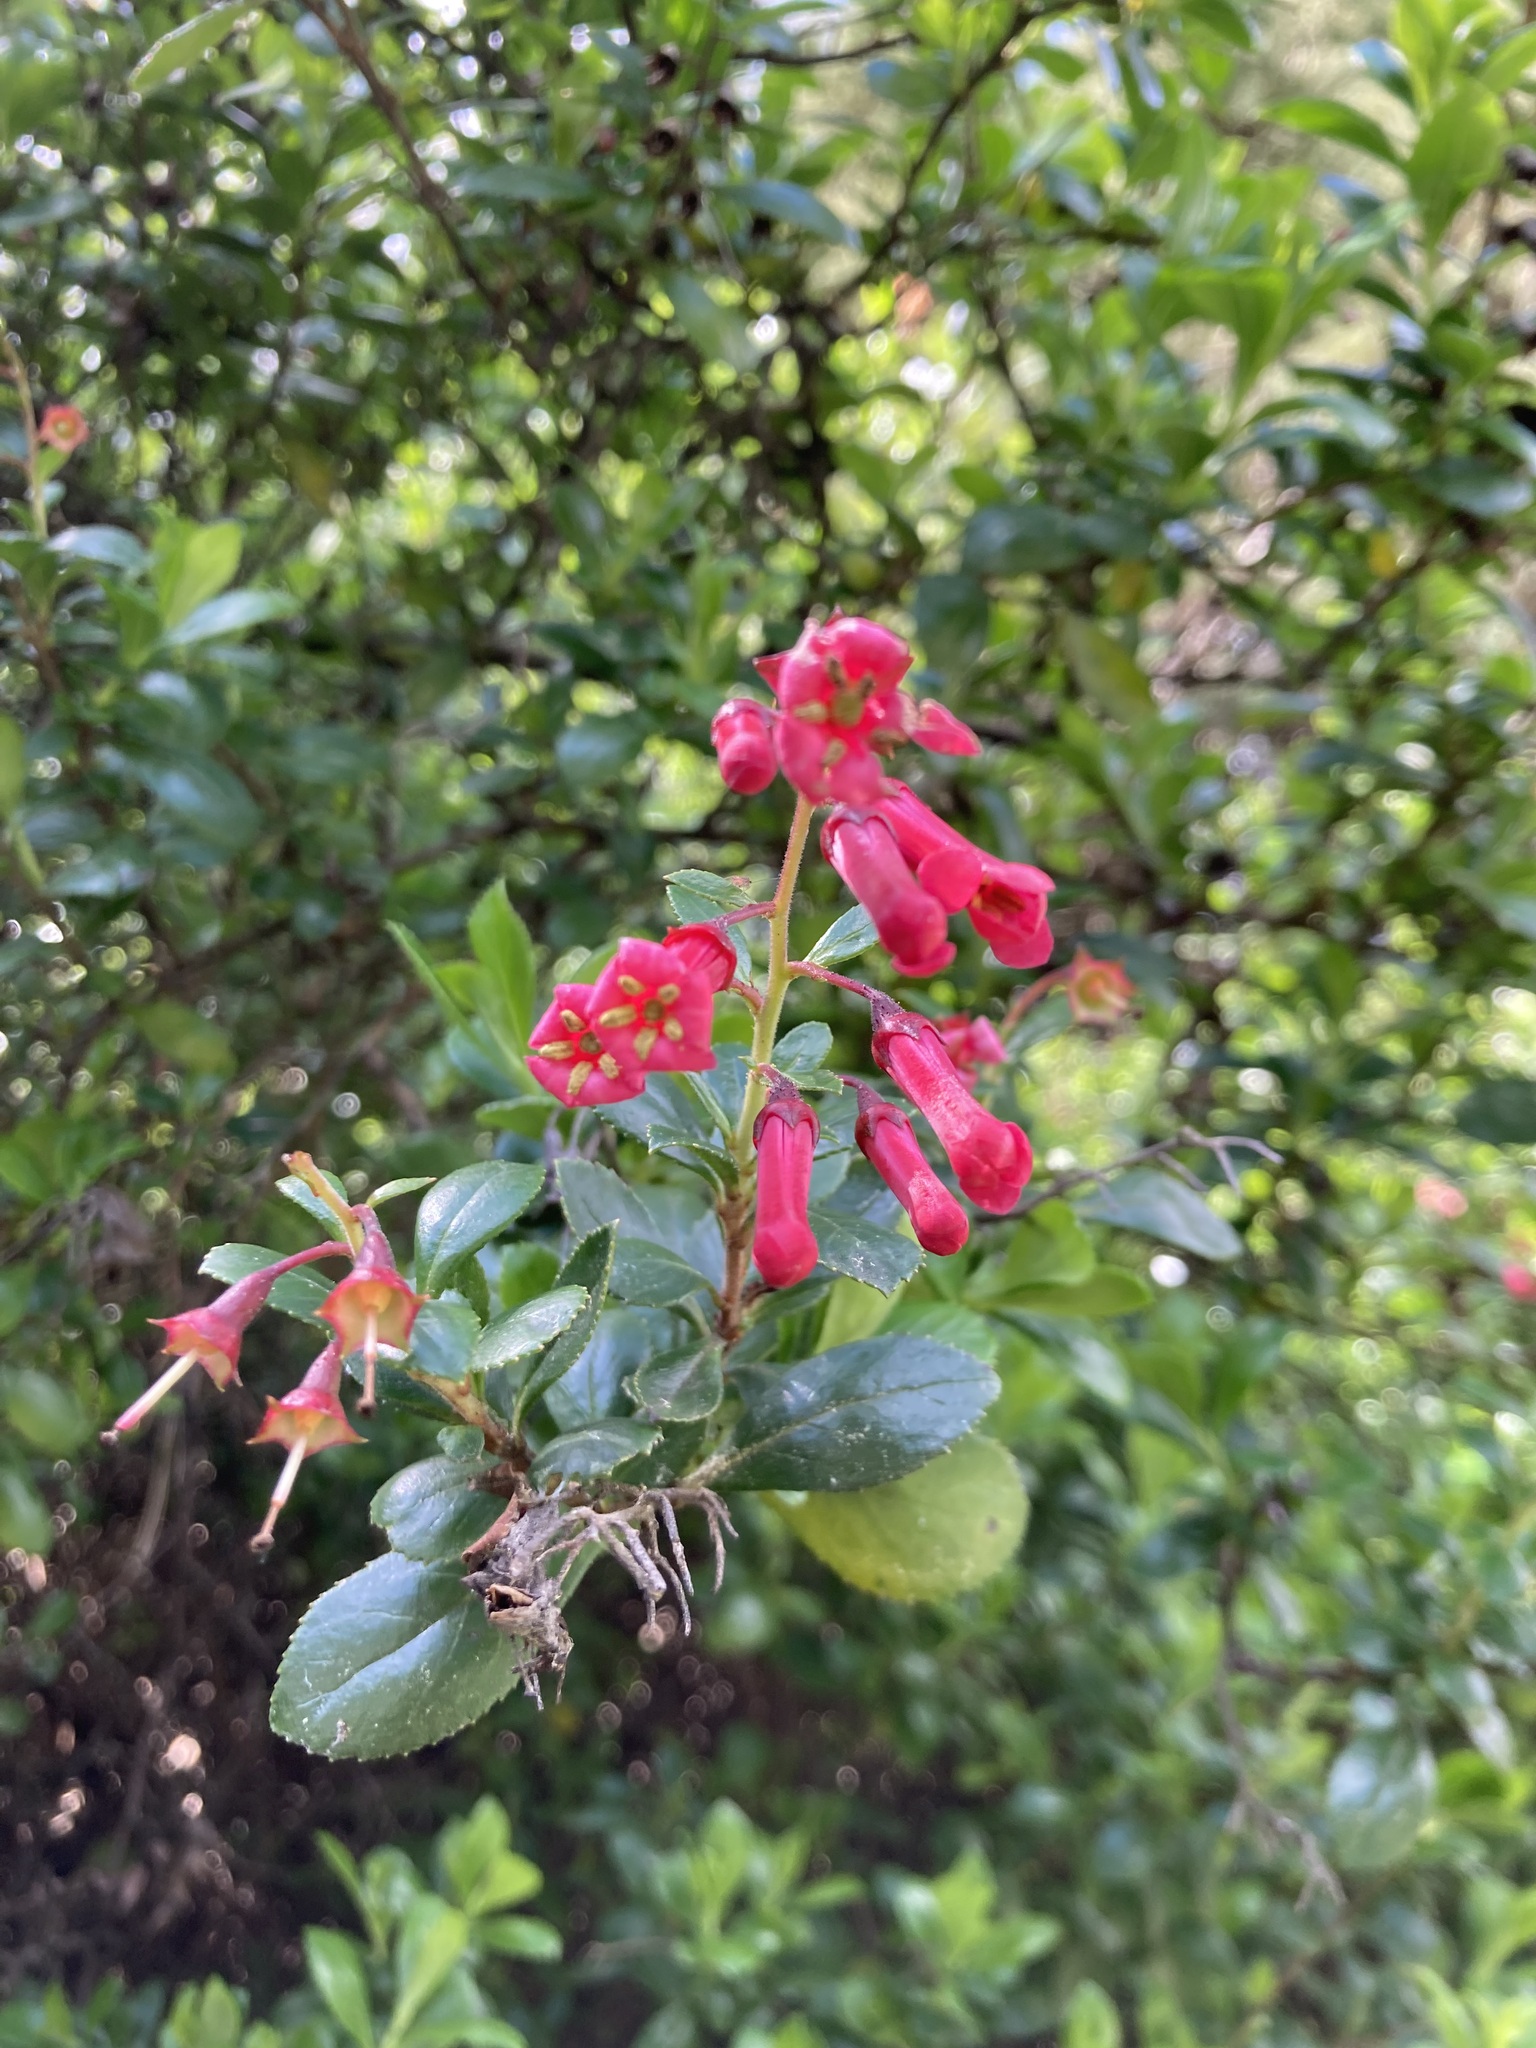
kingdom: Plantae
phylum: Tracheophyta
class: Magnoliopsida
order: Escalloniales
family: Escalloniaceae
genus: Escallonia
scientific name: Escallonia rubra
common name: Redclaws
